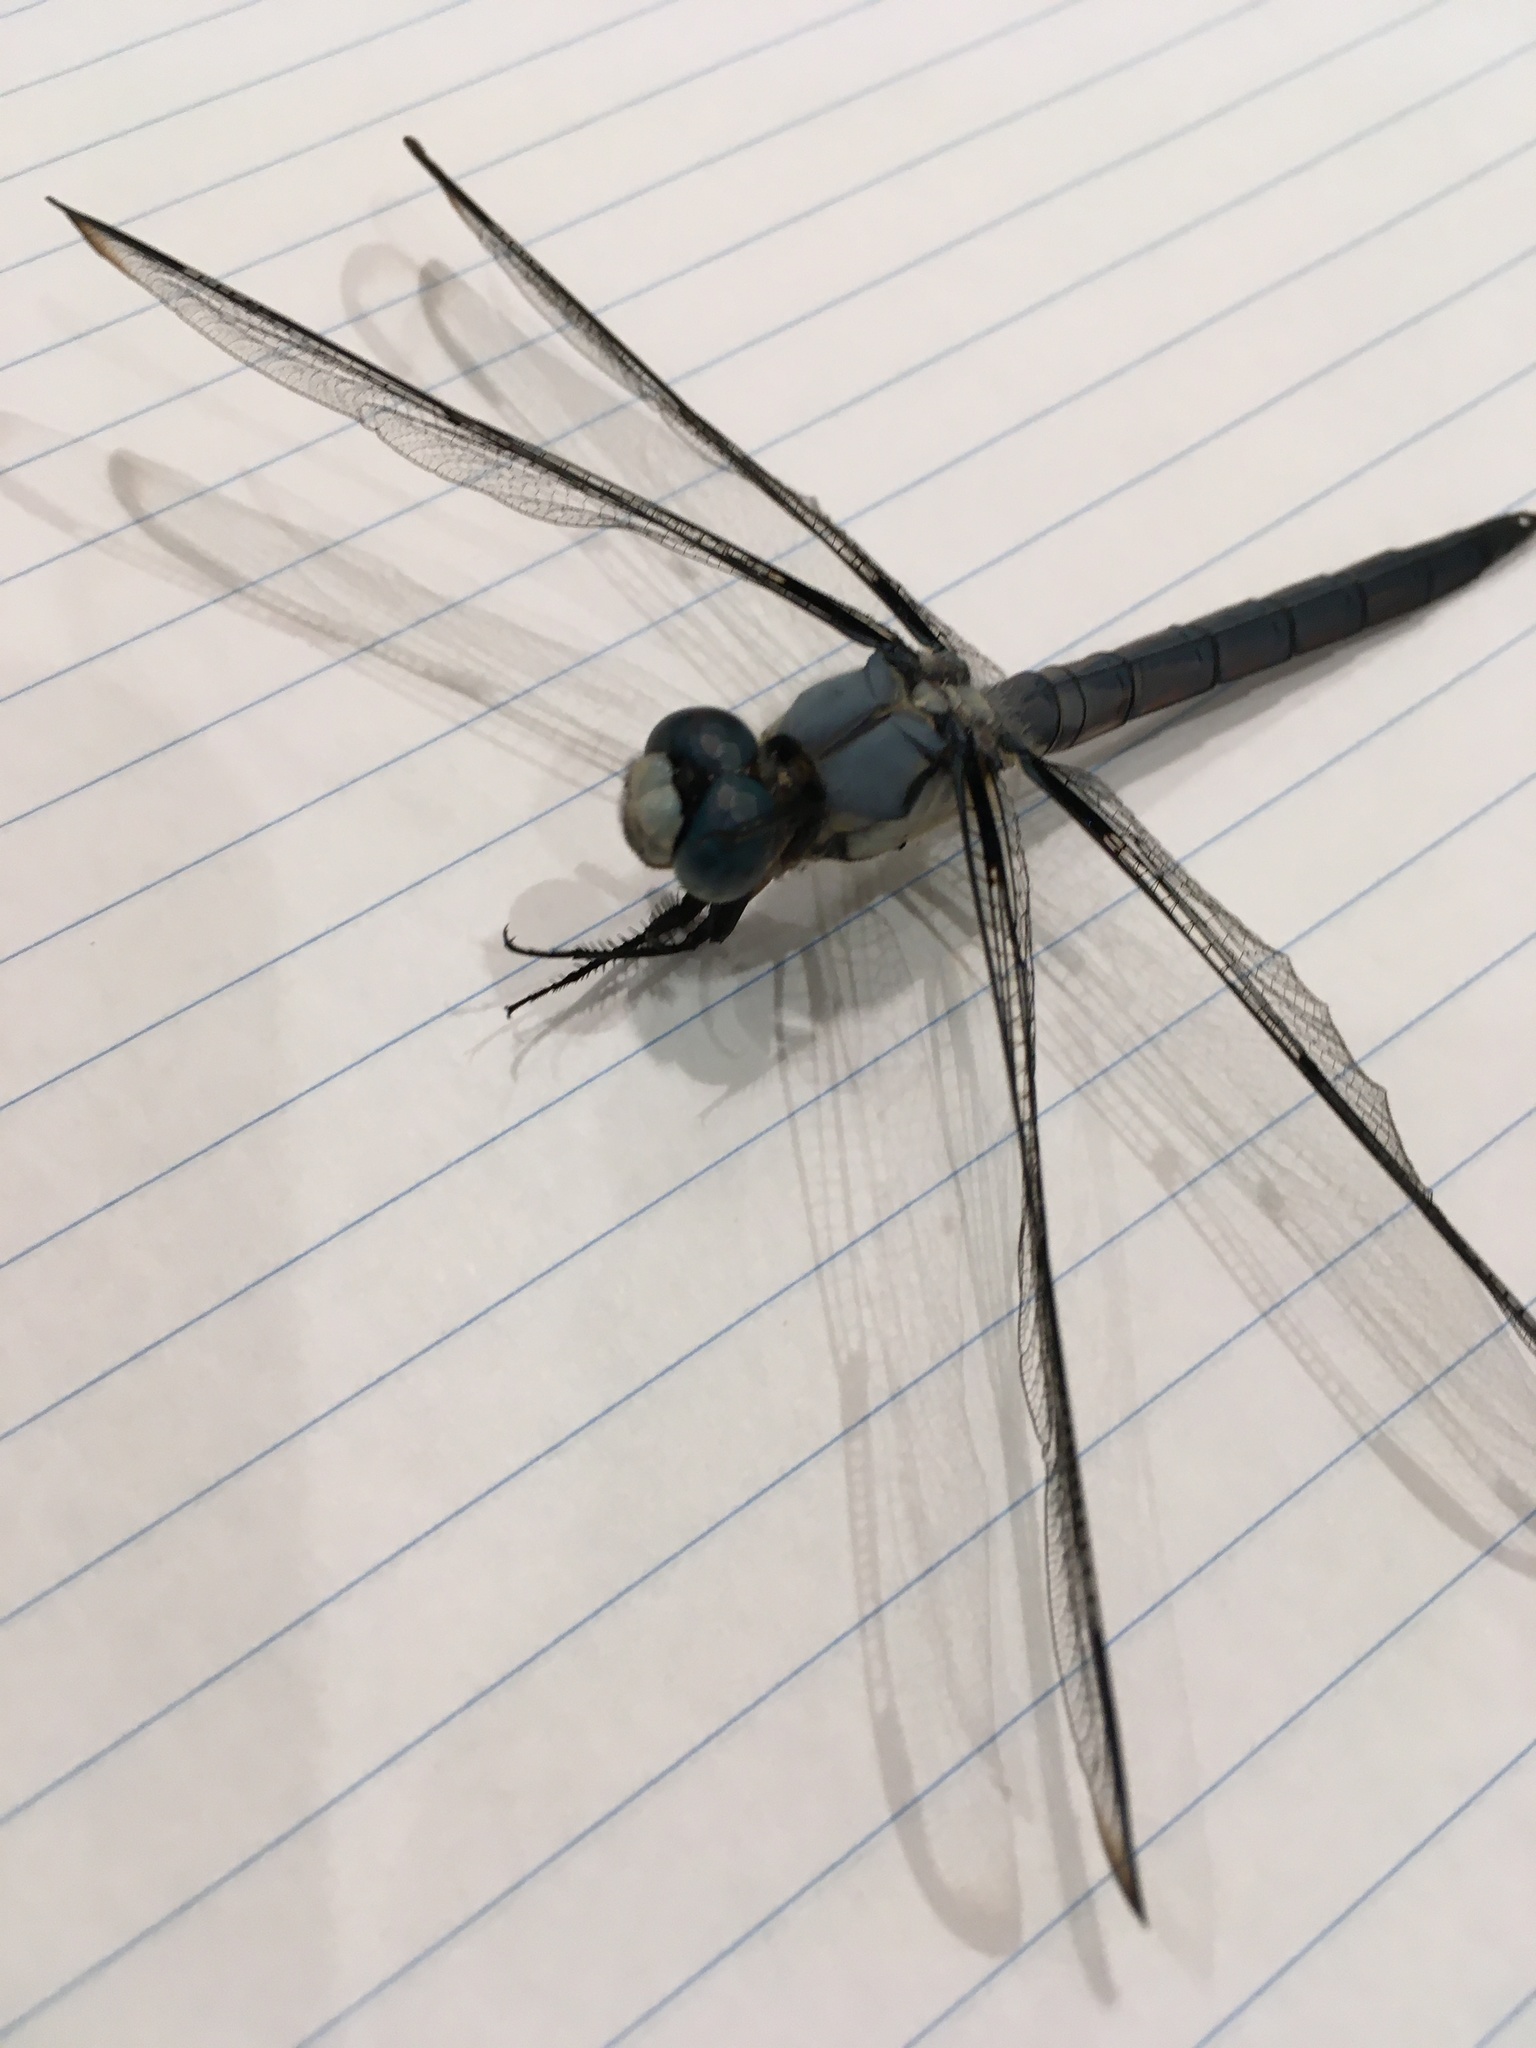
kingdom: Animalia
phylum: Arthropoda
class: Insecta
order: Odonata
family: Libellulidae
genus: Libellula
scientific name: Libellula vibrans
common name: Great blue skimmer
